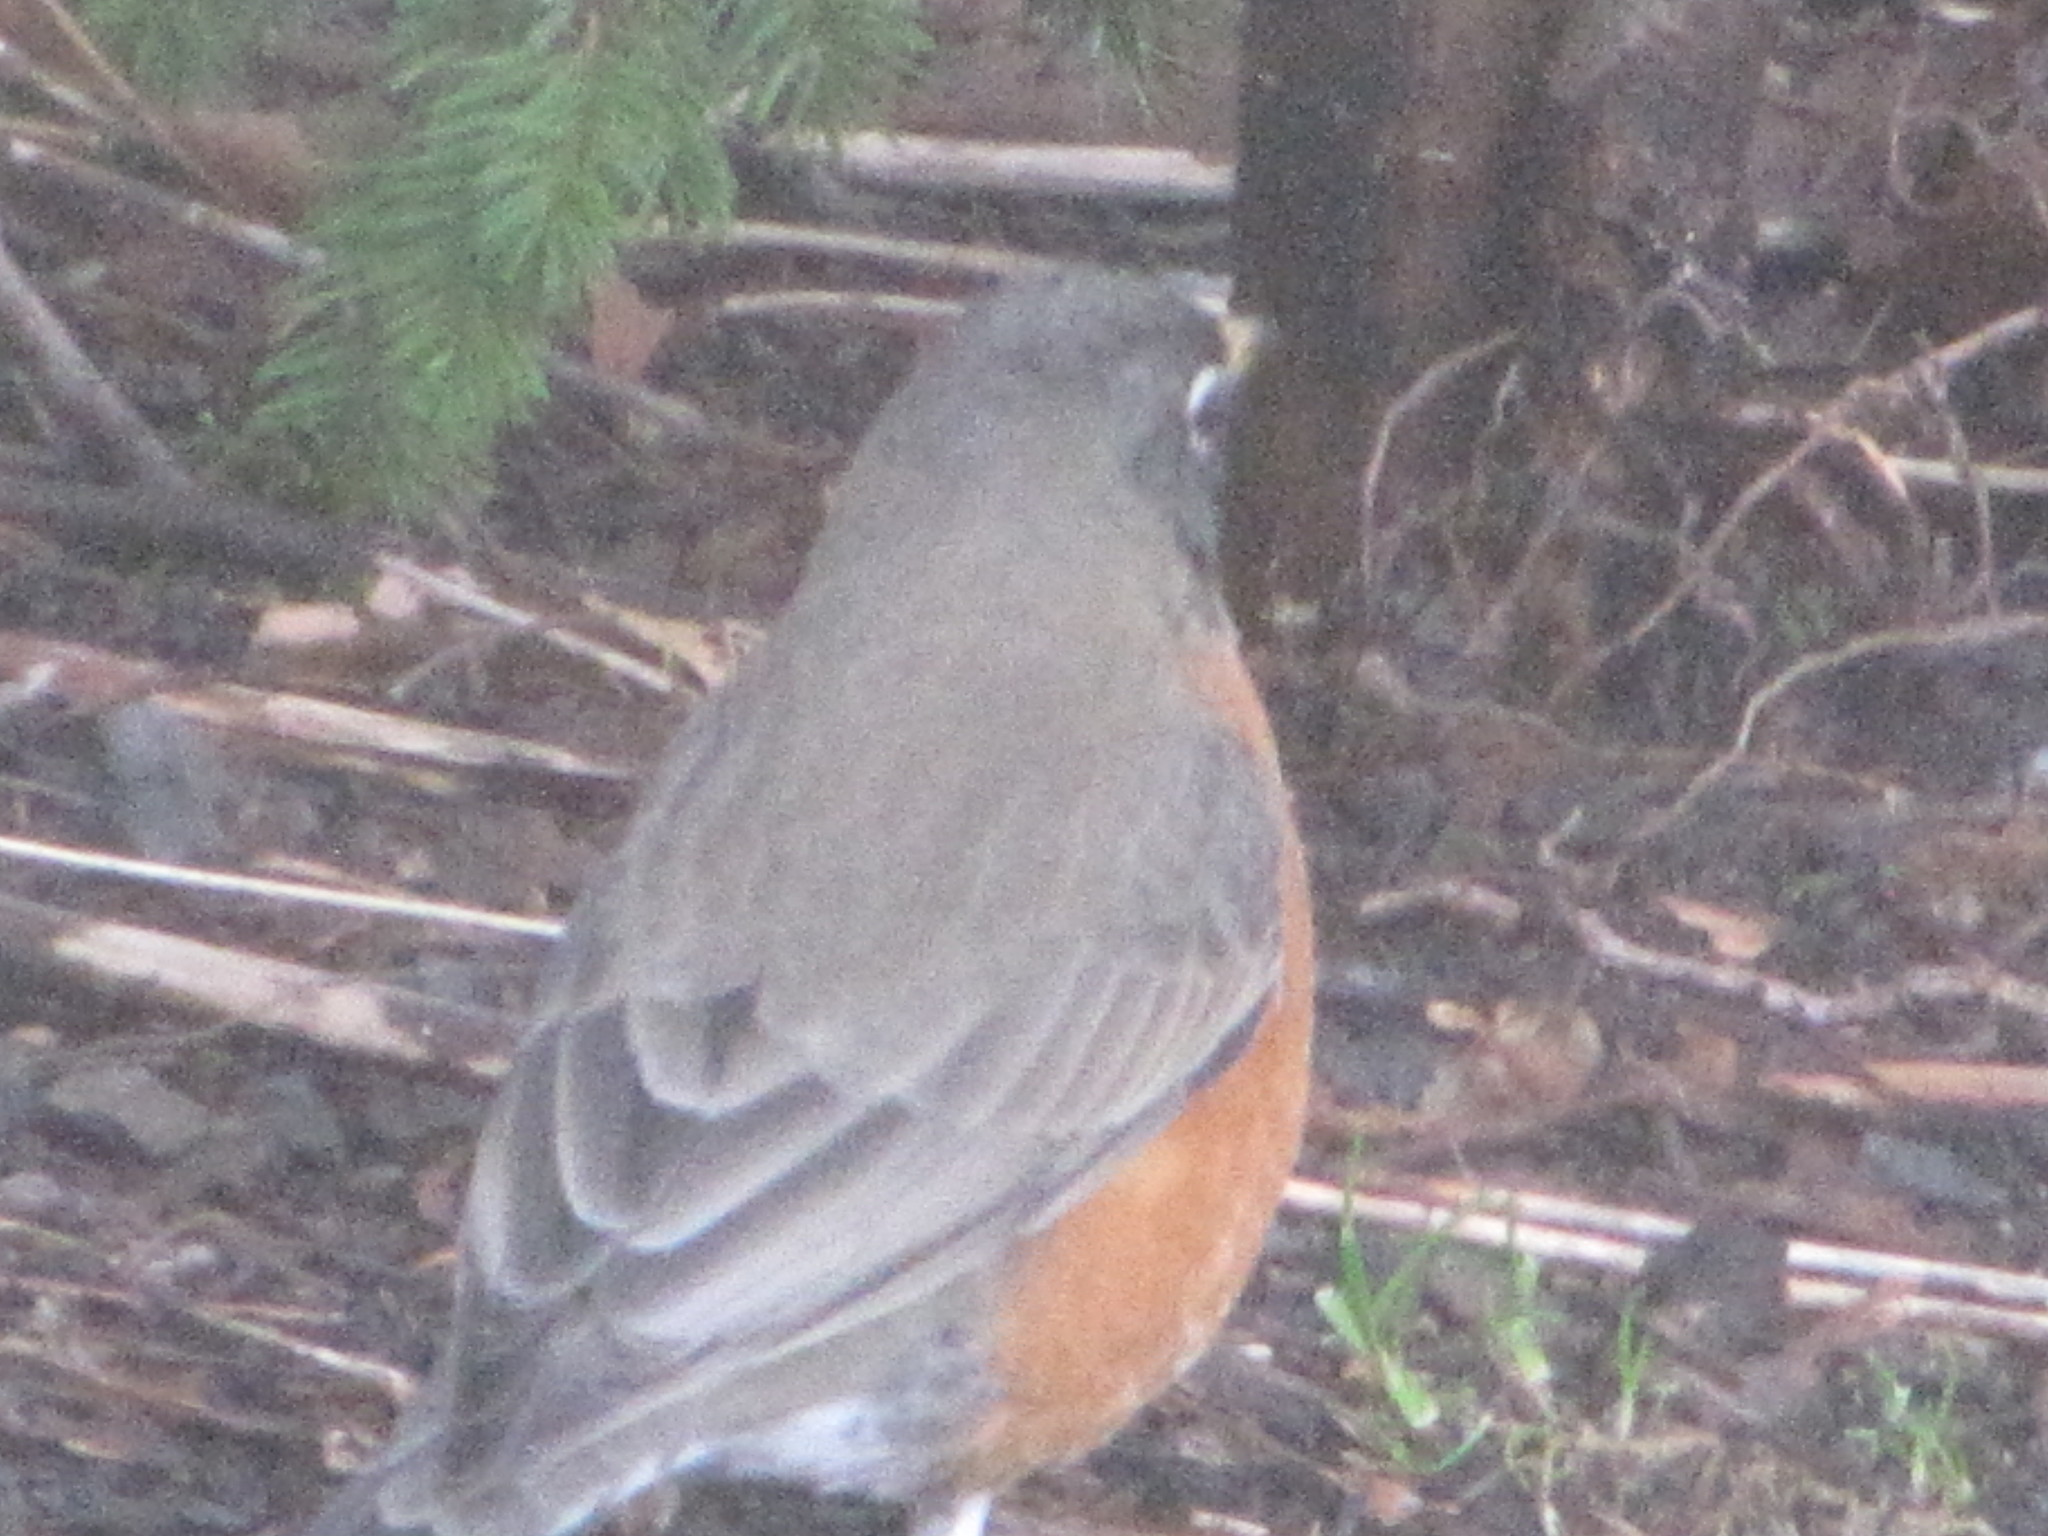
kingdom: Animalia
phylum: Chordata
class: Aves
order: Passeriformes
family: Turdidae
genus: Turdus
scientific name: Turdus migratorius
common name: American robin
